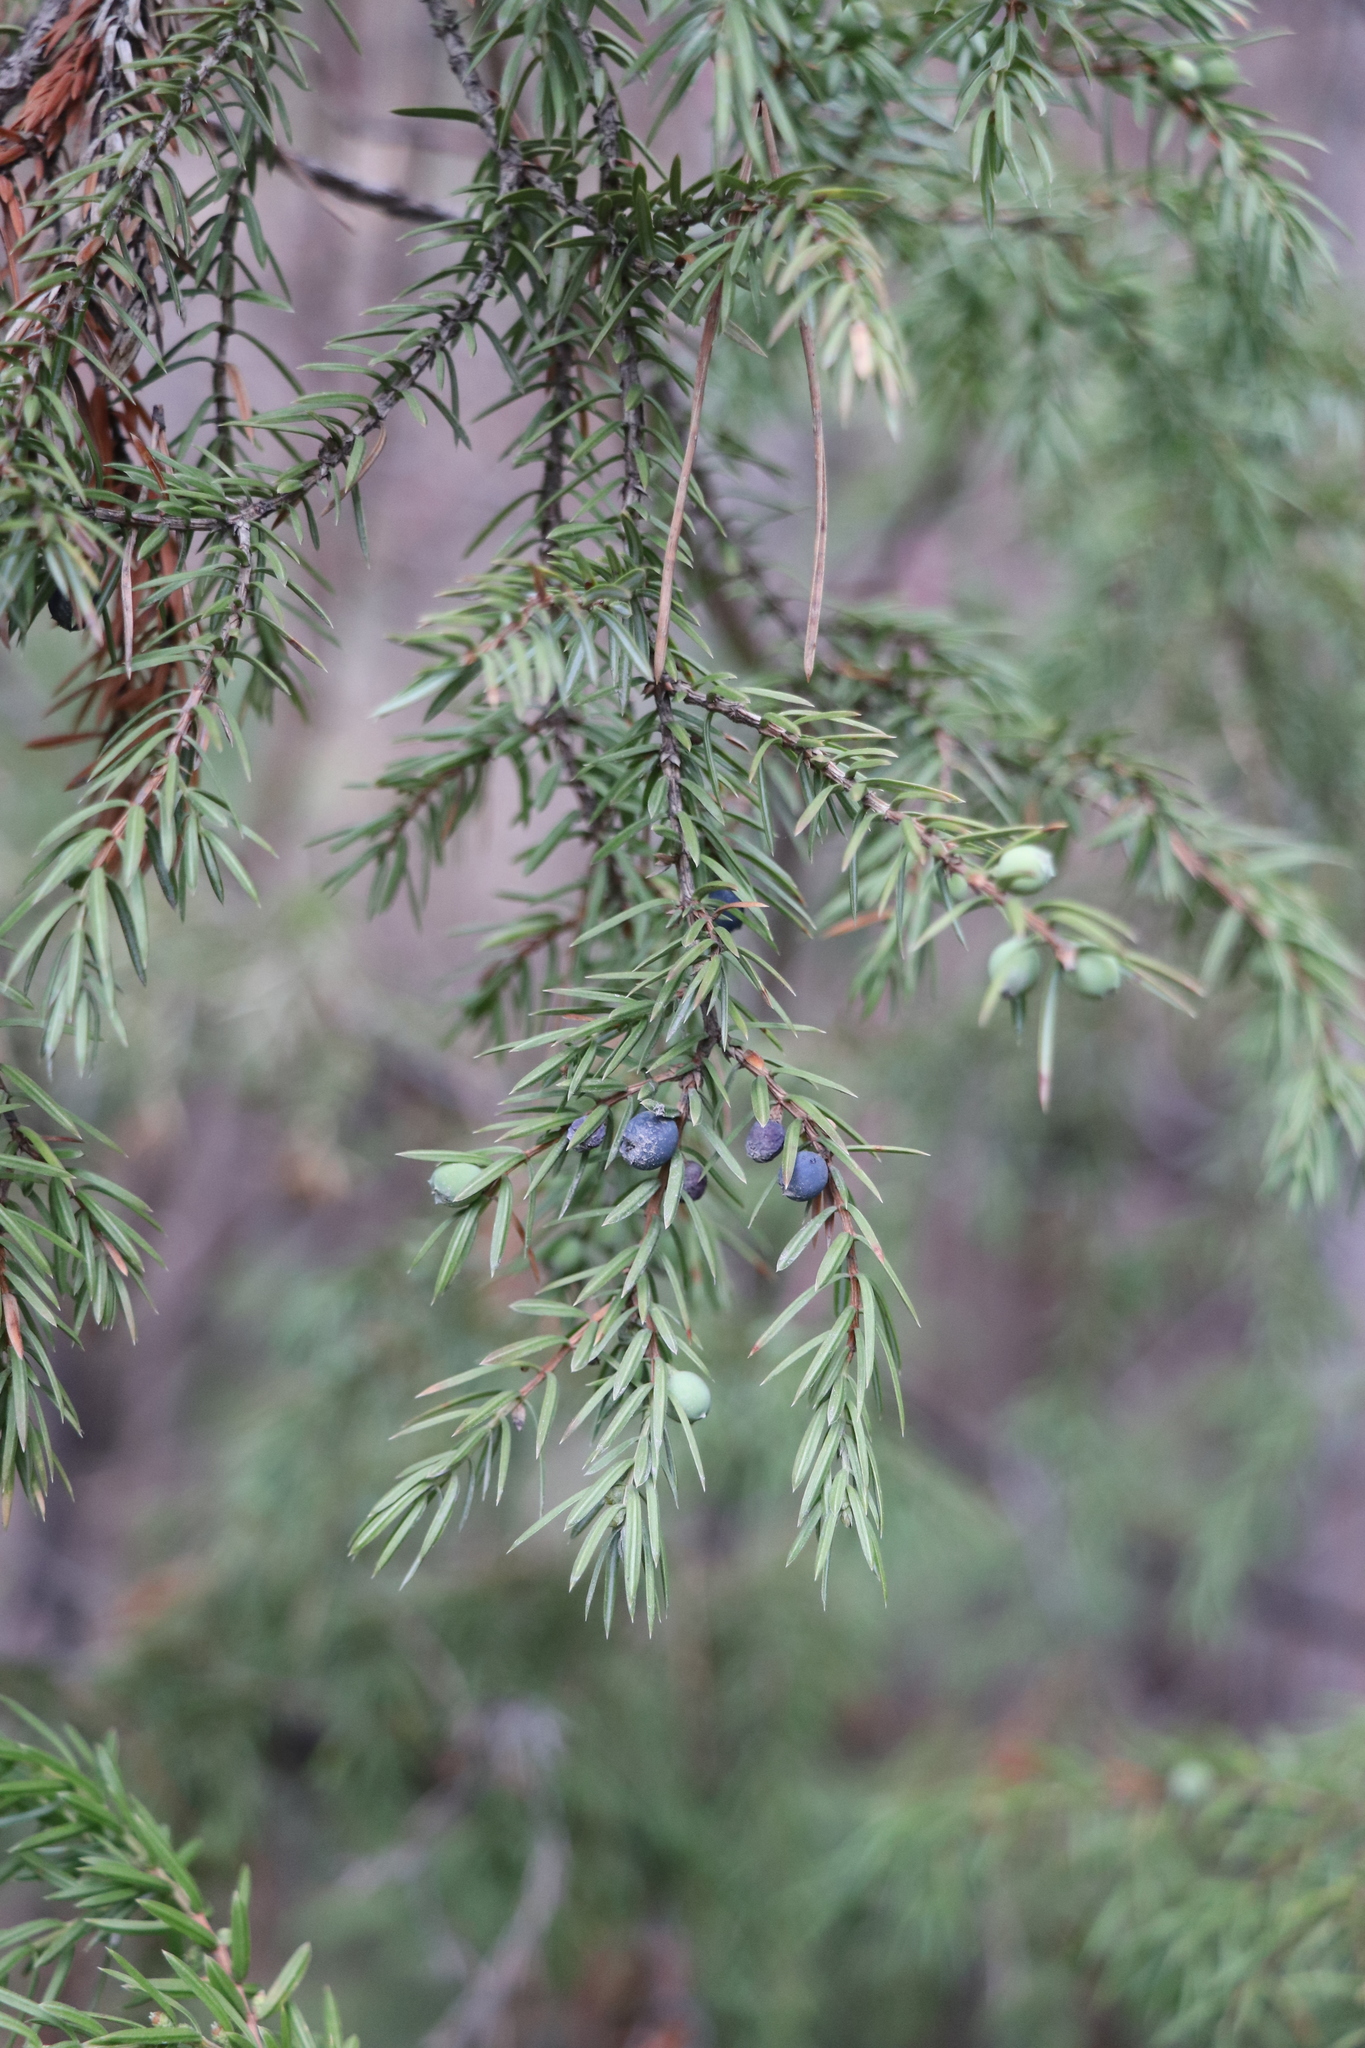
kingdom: Plantae
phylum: Tracheophyta
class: Pinopsida
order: Pinales
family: Cupressaceae
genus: Juniperus
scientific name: Juniperus communis
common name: Common juniper
